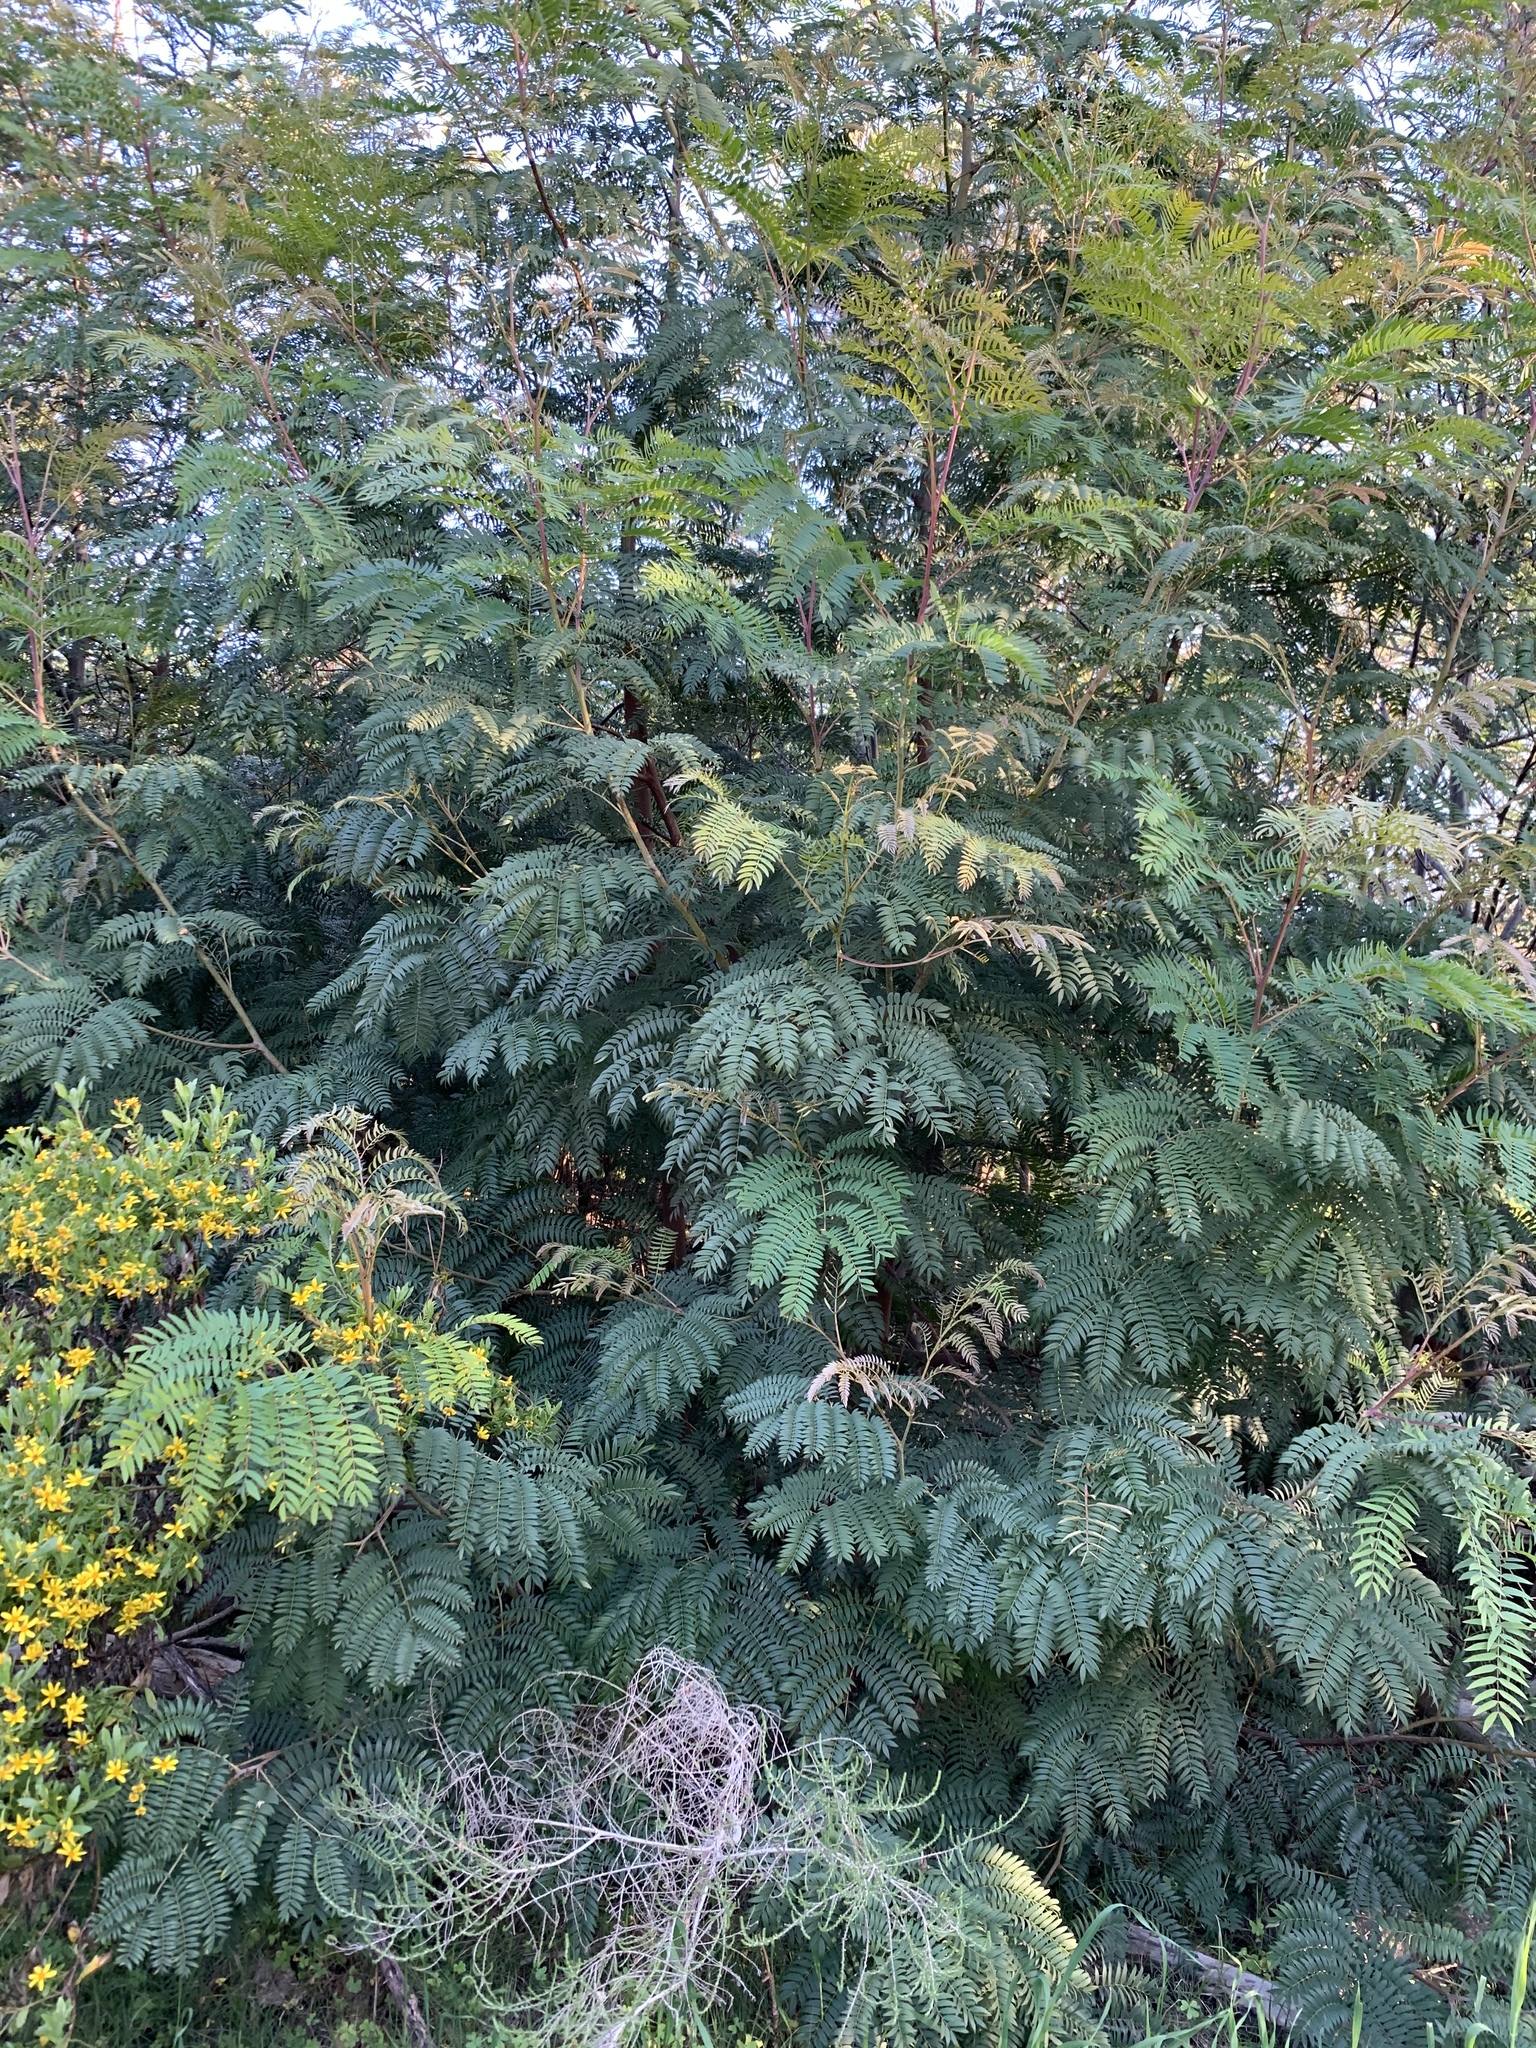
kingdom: Plantae
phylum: Tracheophyta
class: Magnoliopsida
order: Fabales
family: Fabaceae
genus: Acacia
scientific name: Acacia elata
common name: Cedar wattle
